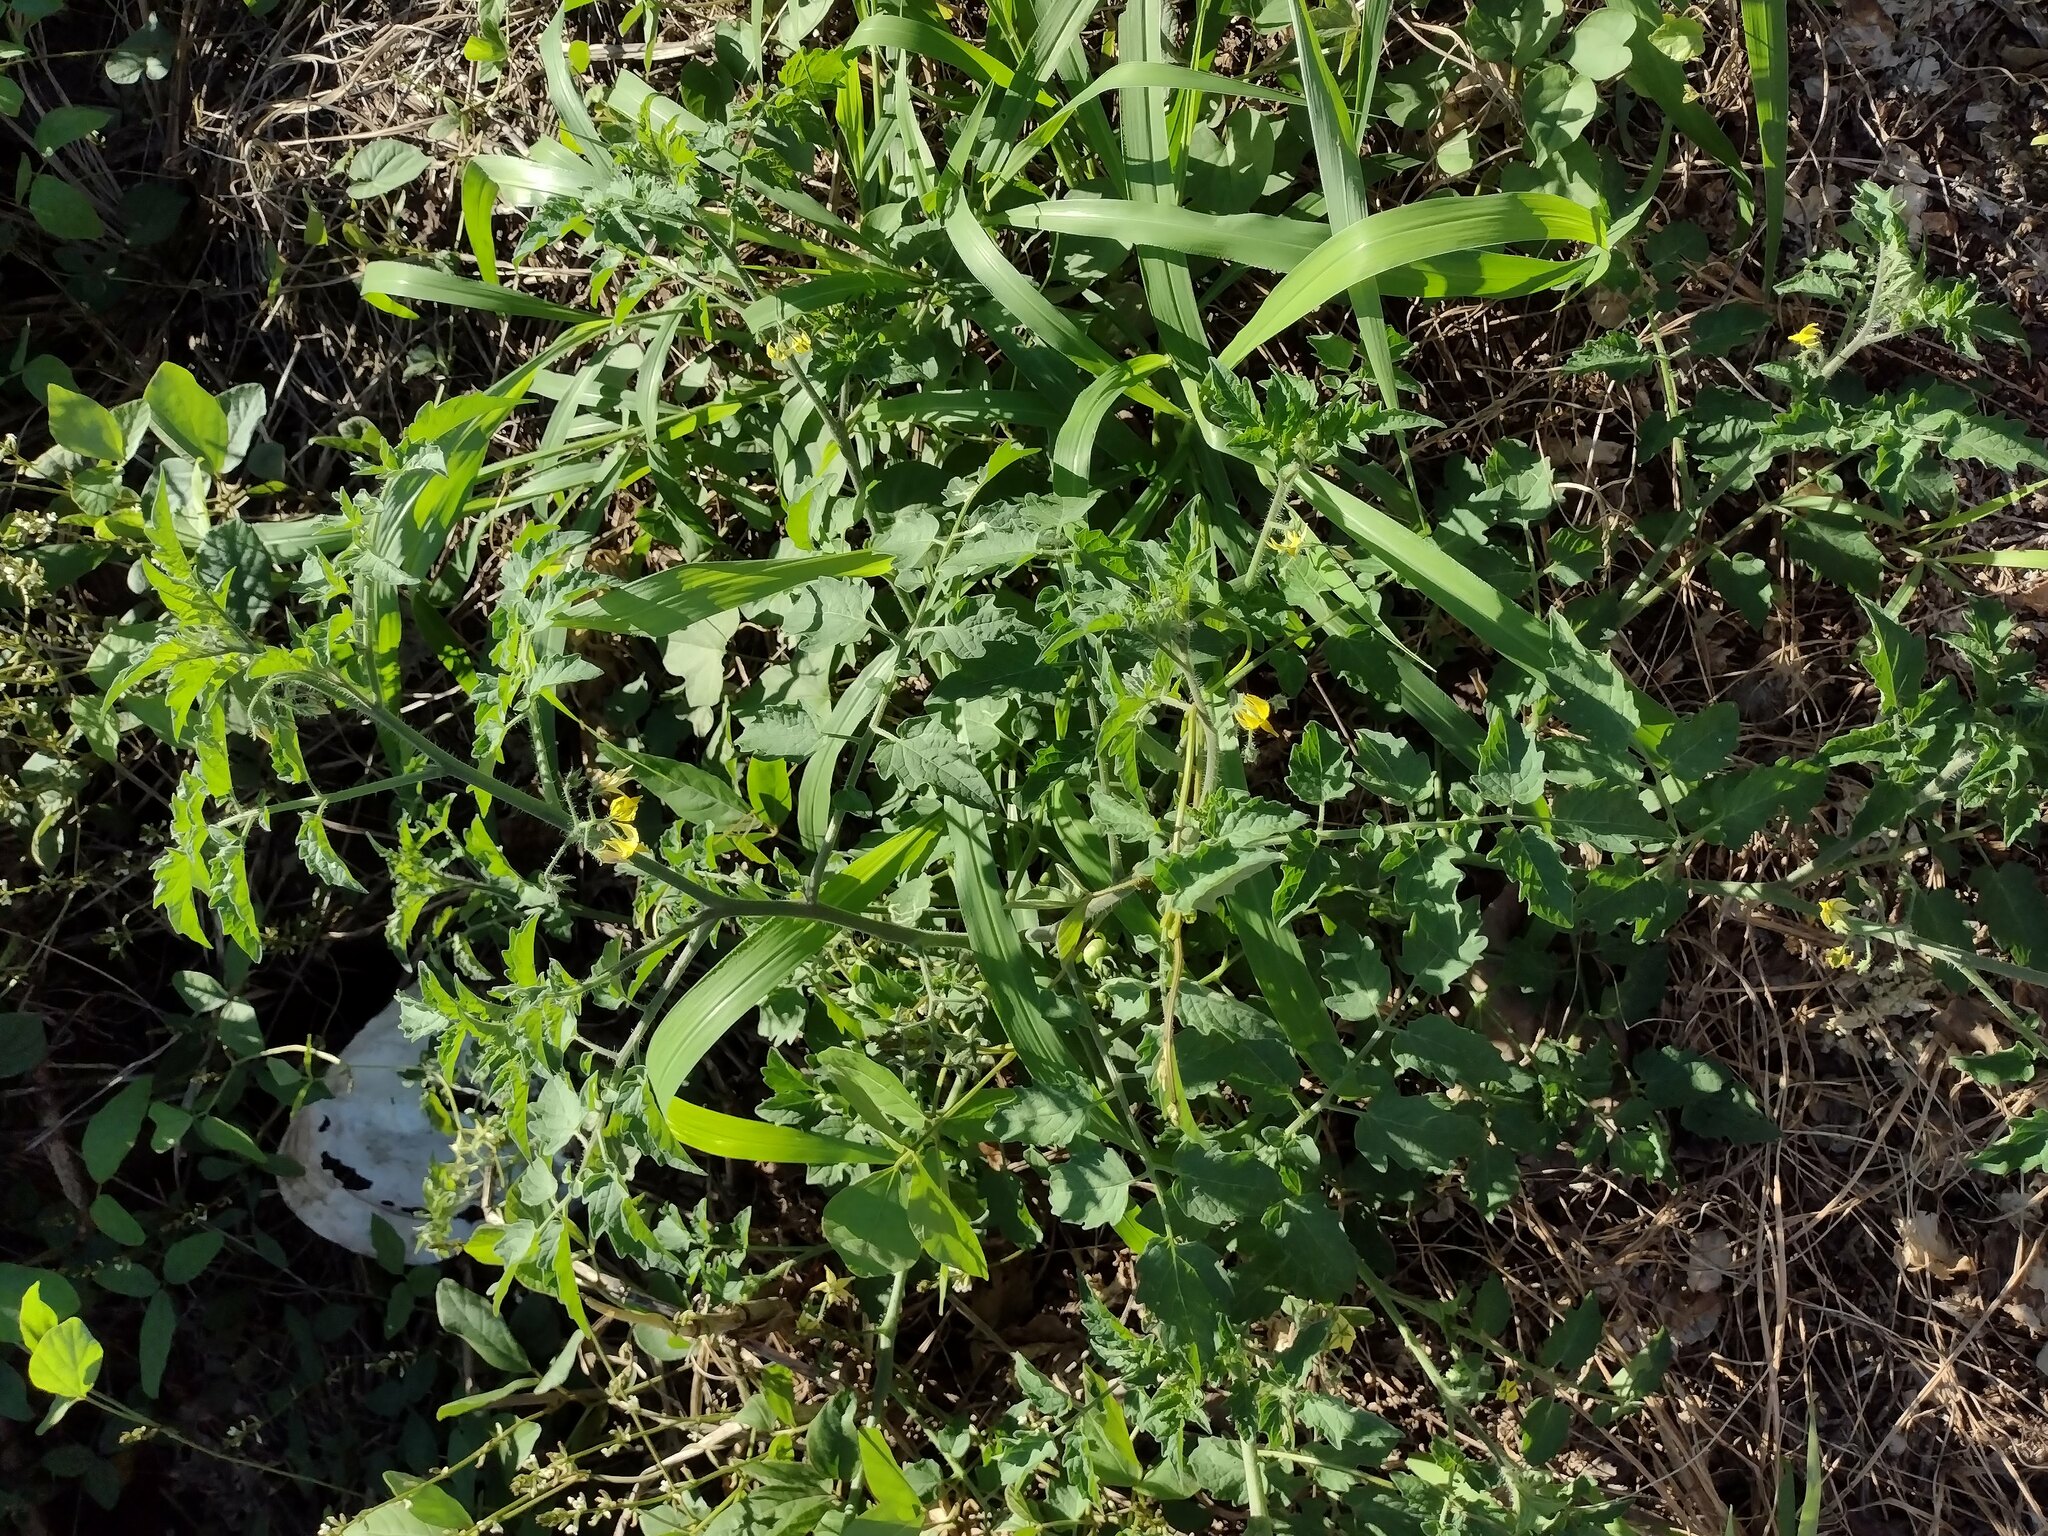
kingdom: Plantae
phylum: Tracheophyta
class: Magnoliopsida
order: Solanales
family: Solanaceae
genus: Solanum
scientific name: Solanum lycopersicum
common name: Garden tomato
